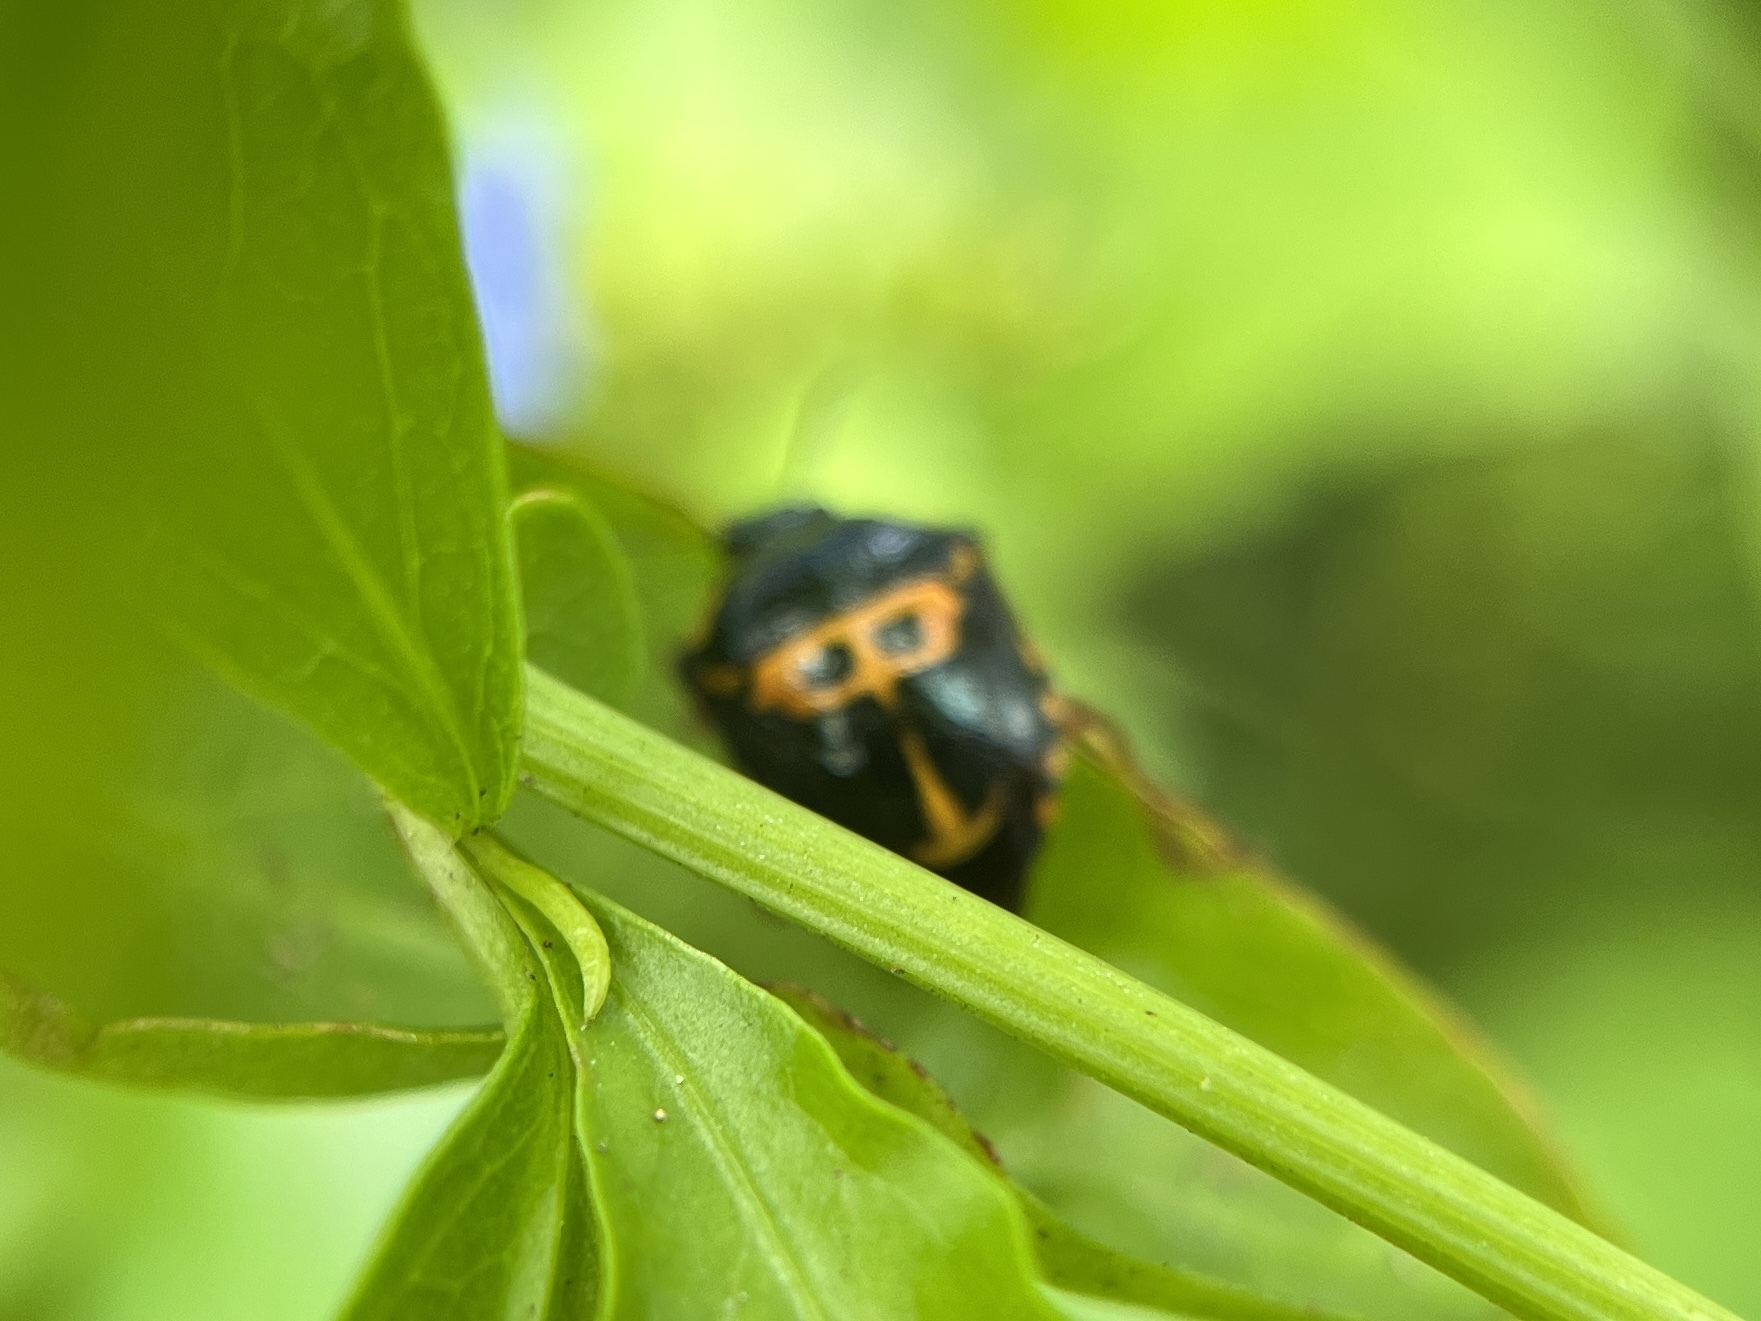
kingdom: Animalia
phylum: Arthropoda
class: Insecta
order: Hemiptera
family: Pentatomidae
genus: Stiretrus
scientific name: Stiretrus anchorago
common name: Anchor stink bug
